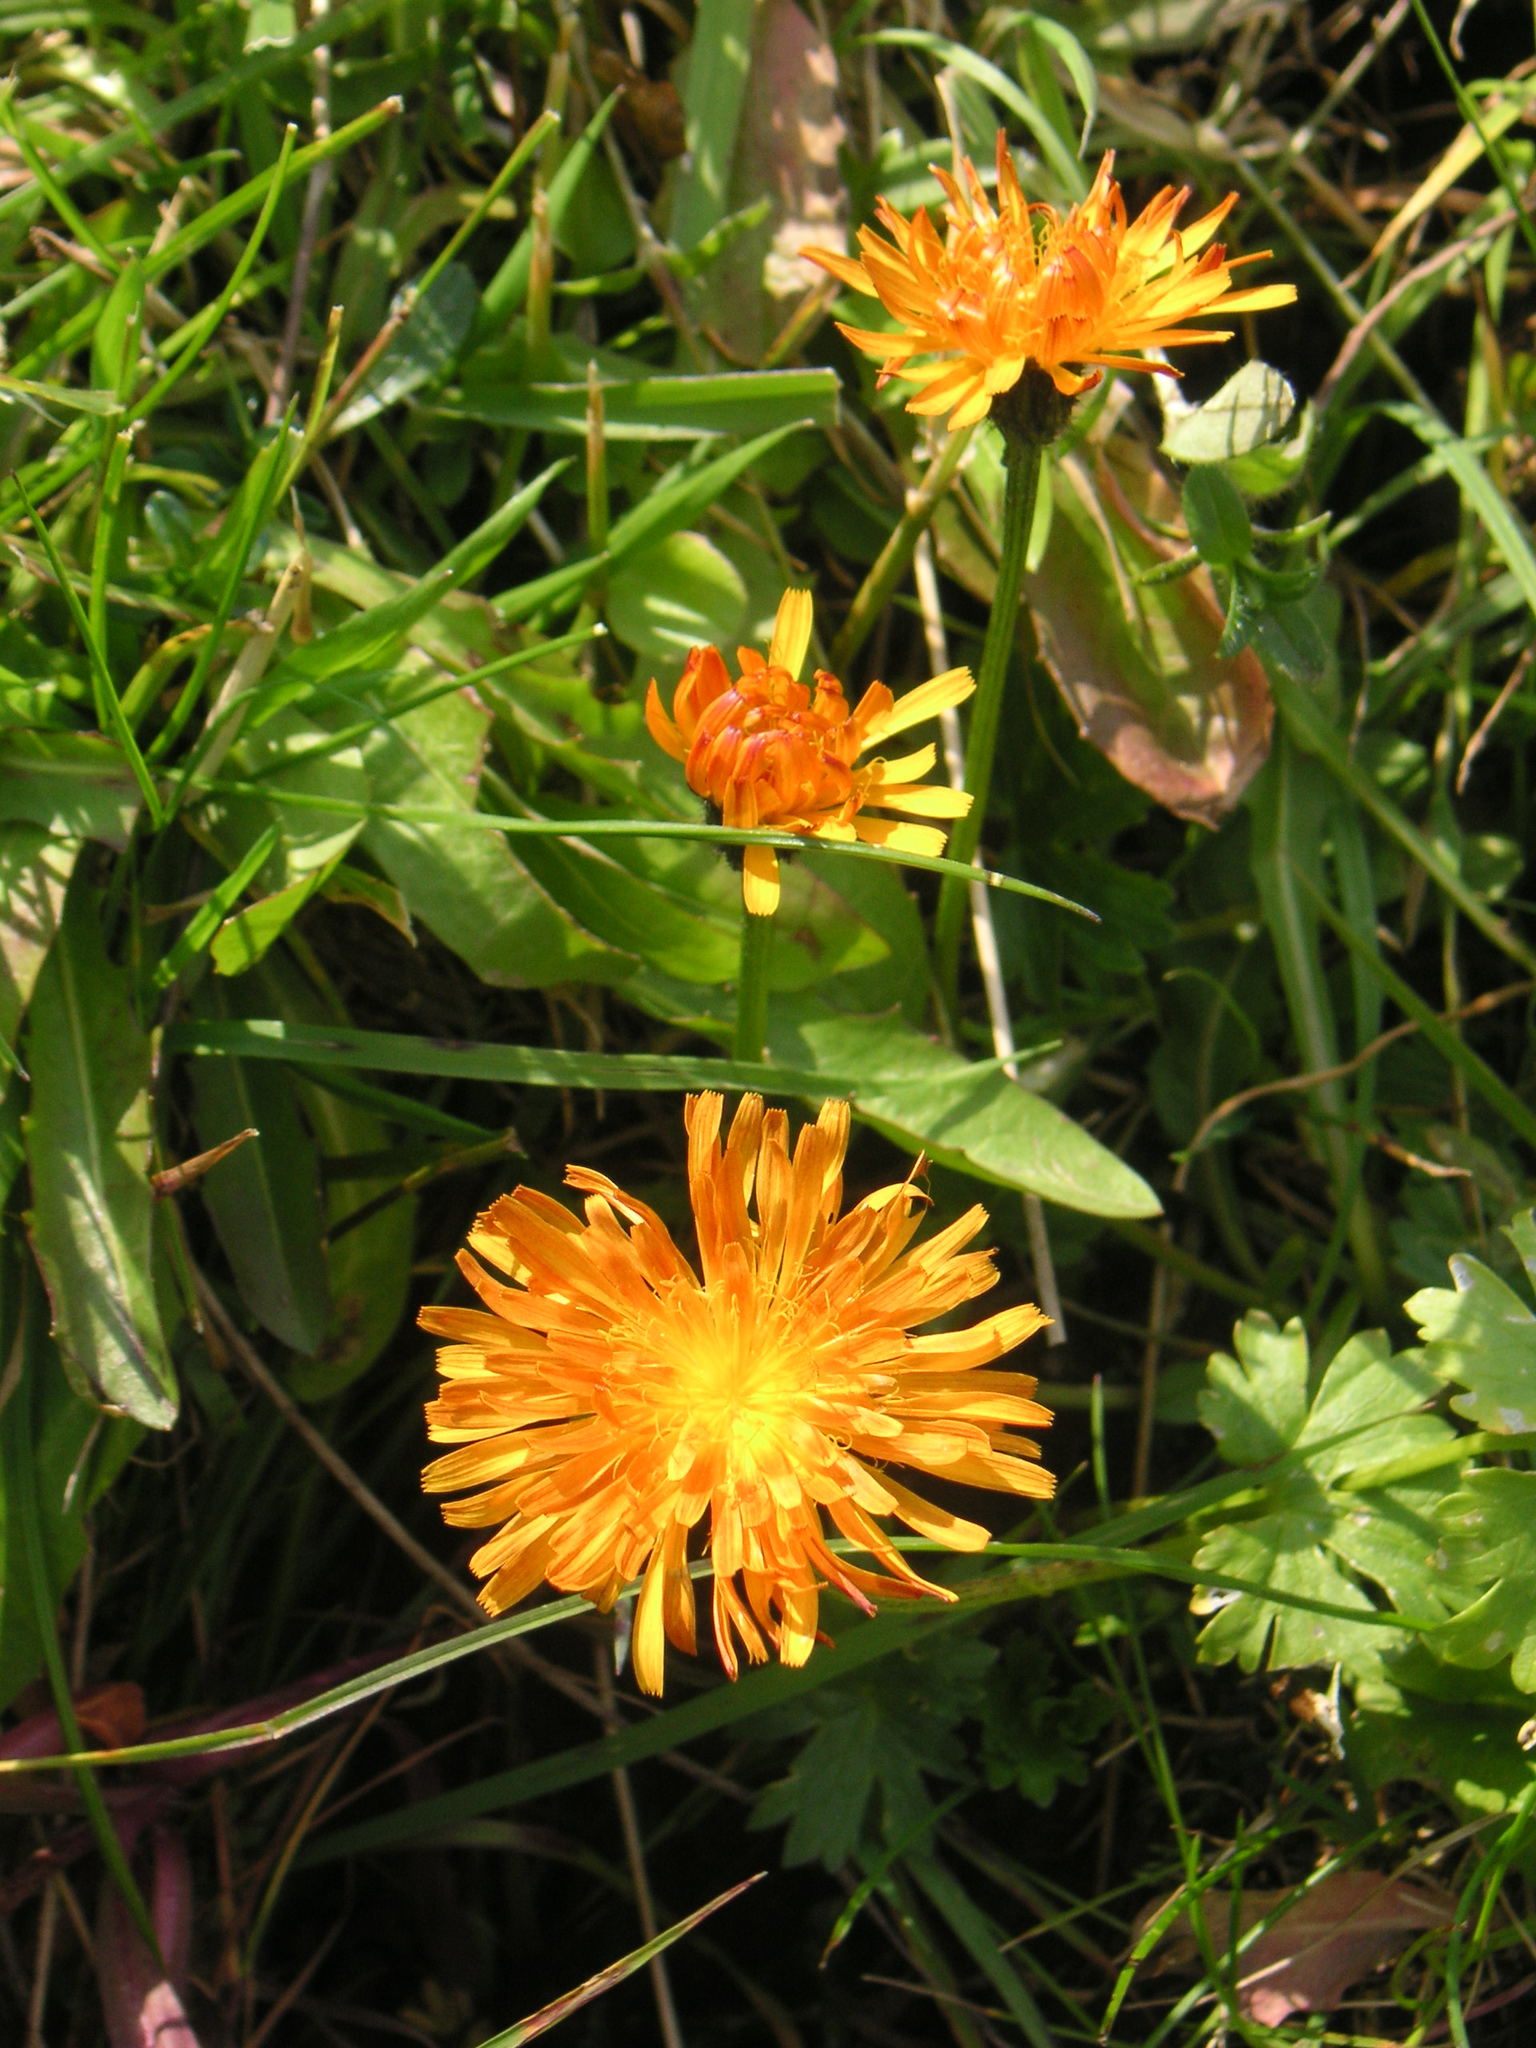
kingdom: Plantae
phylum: Tracheophyta
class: Magnoliopsida
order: Asterales
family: Asteraceae
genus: Crepis
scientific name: Crepis aurea
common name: Golden hawk's-beard
